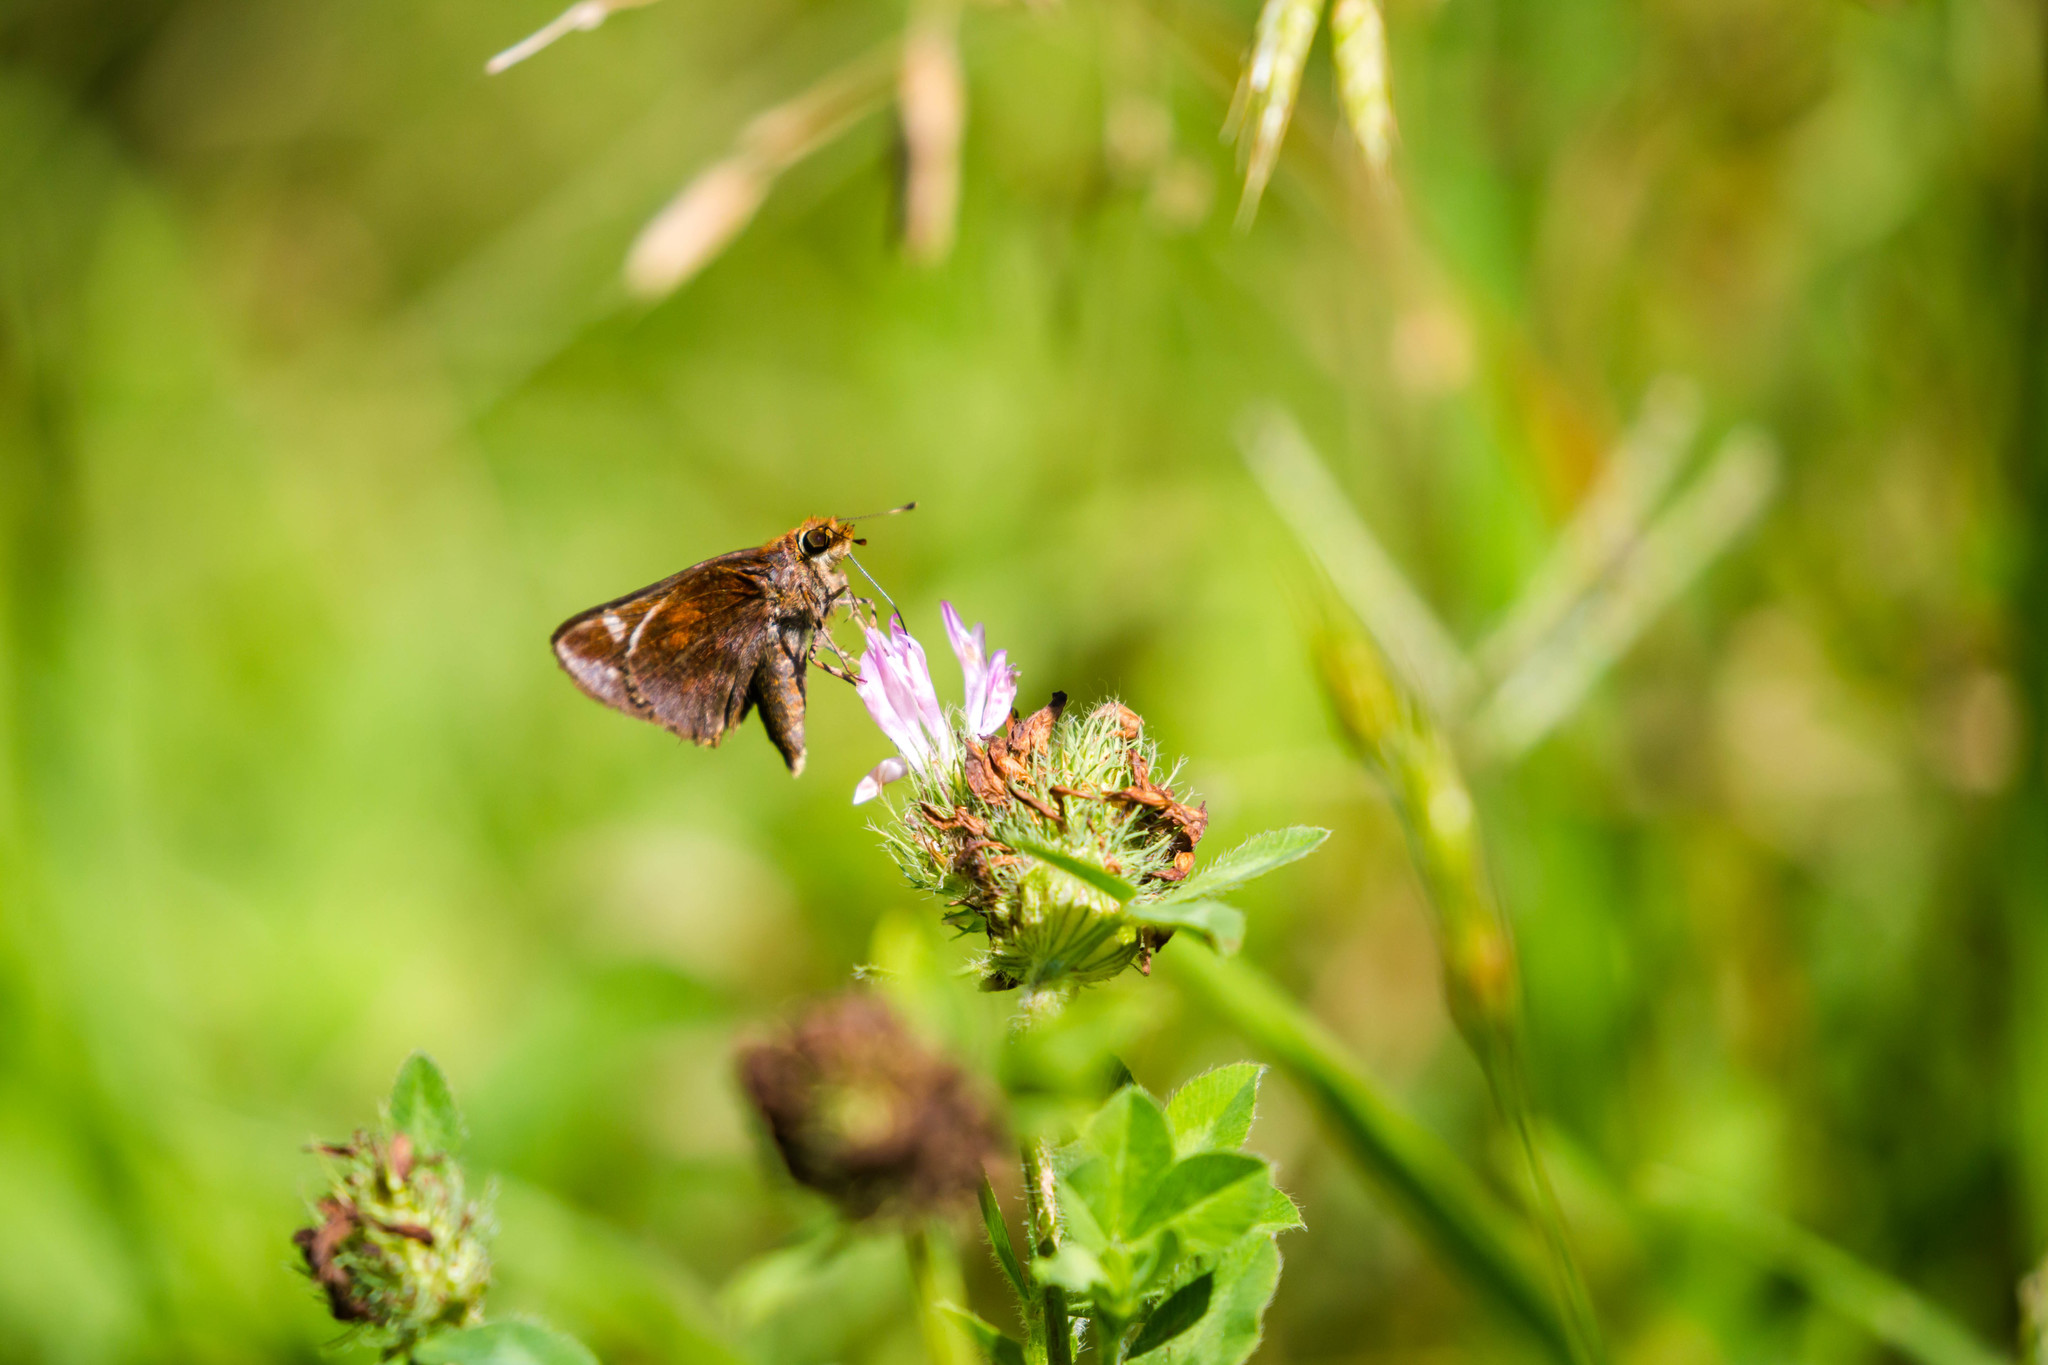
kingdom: Animalia
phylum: Arthropoda
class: Insecta
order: Lepidoptera
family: Hesperiidae
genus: Lon
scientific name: Lon zabulon
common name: Zabulon skipper
